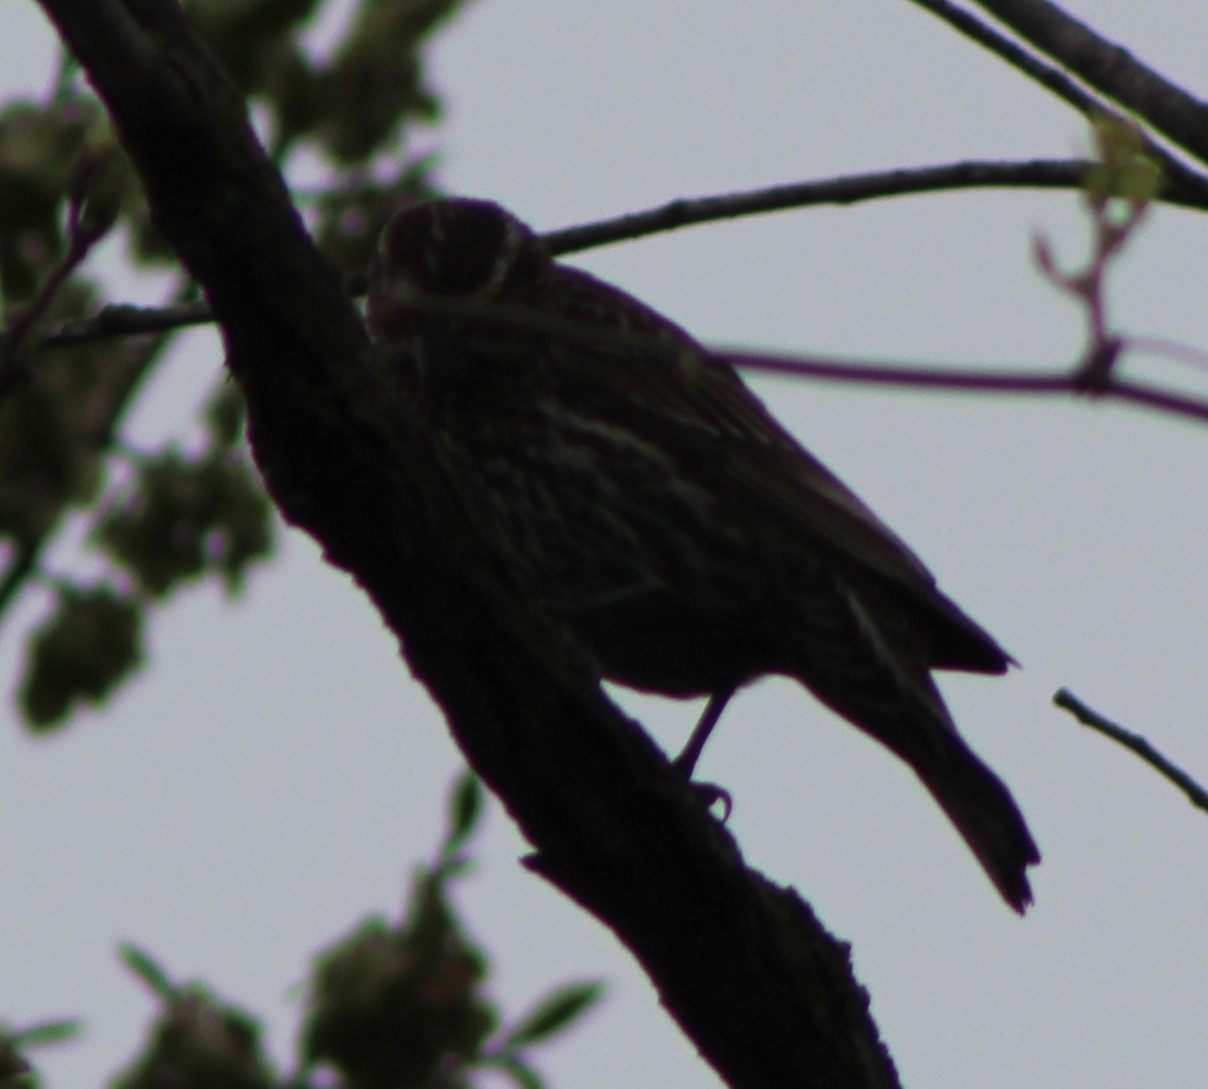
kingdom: Animalia
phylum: Chordata
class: Aves
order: Passeriformes
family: Icteridae
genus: Agelaius
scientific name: Agelaius phoeniceus
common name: Red-winged blackbird
